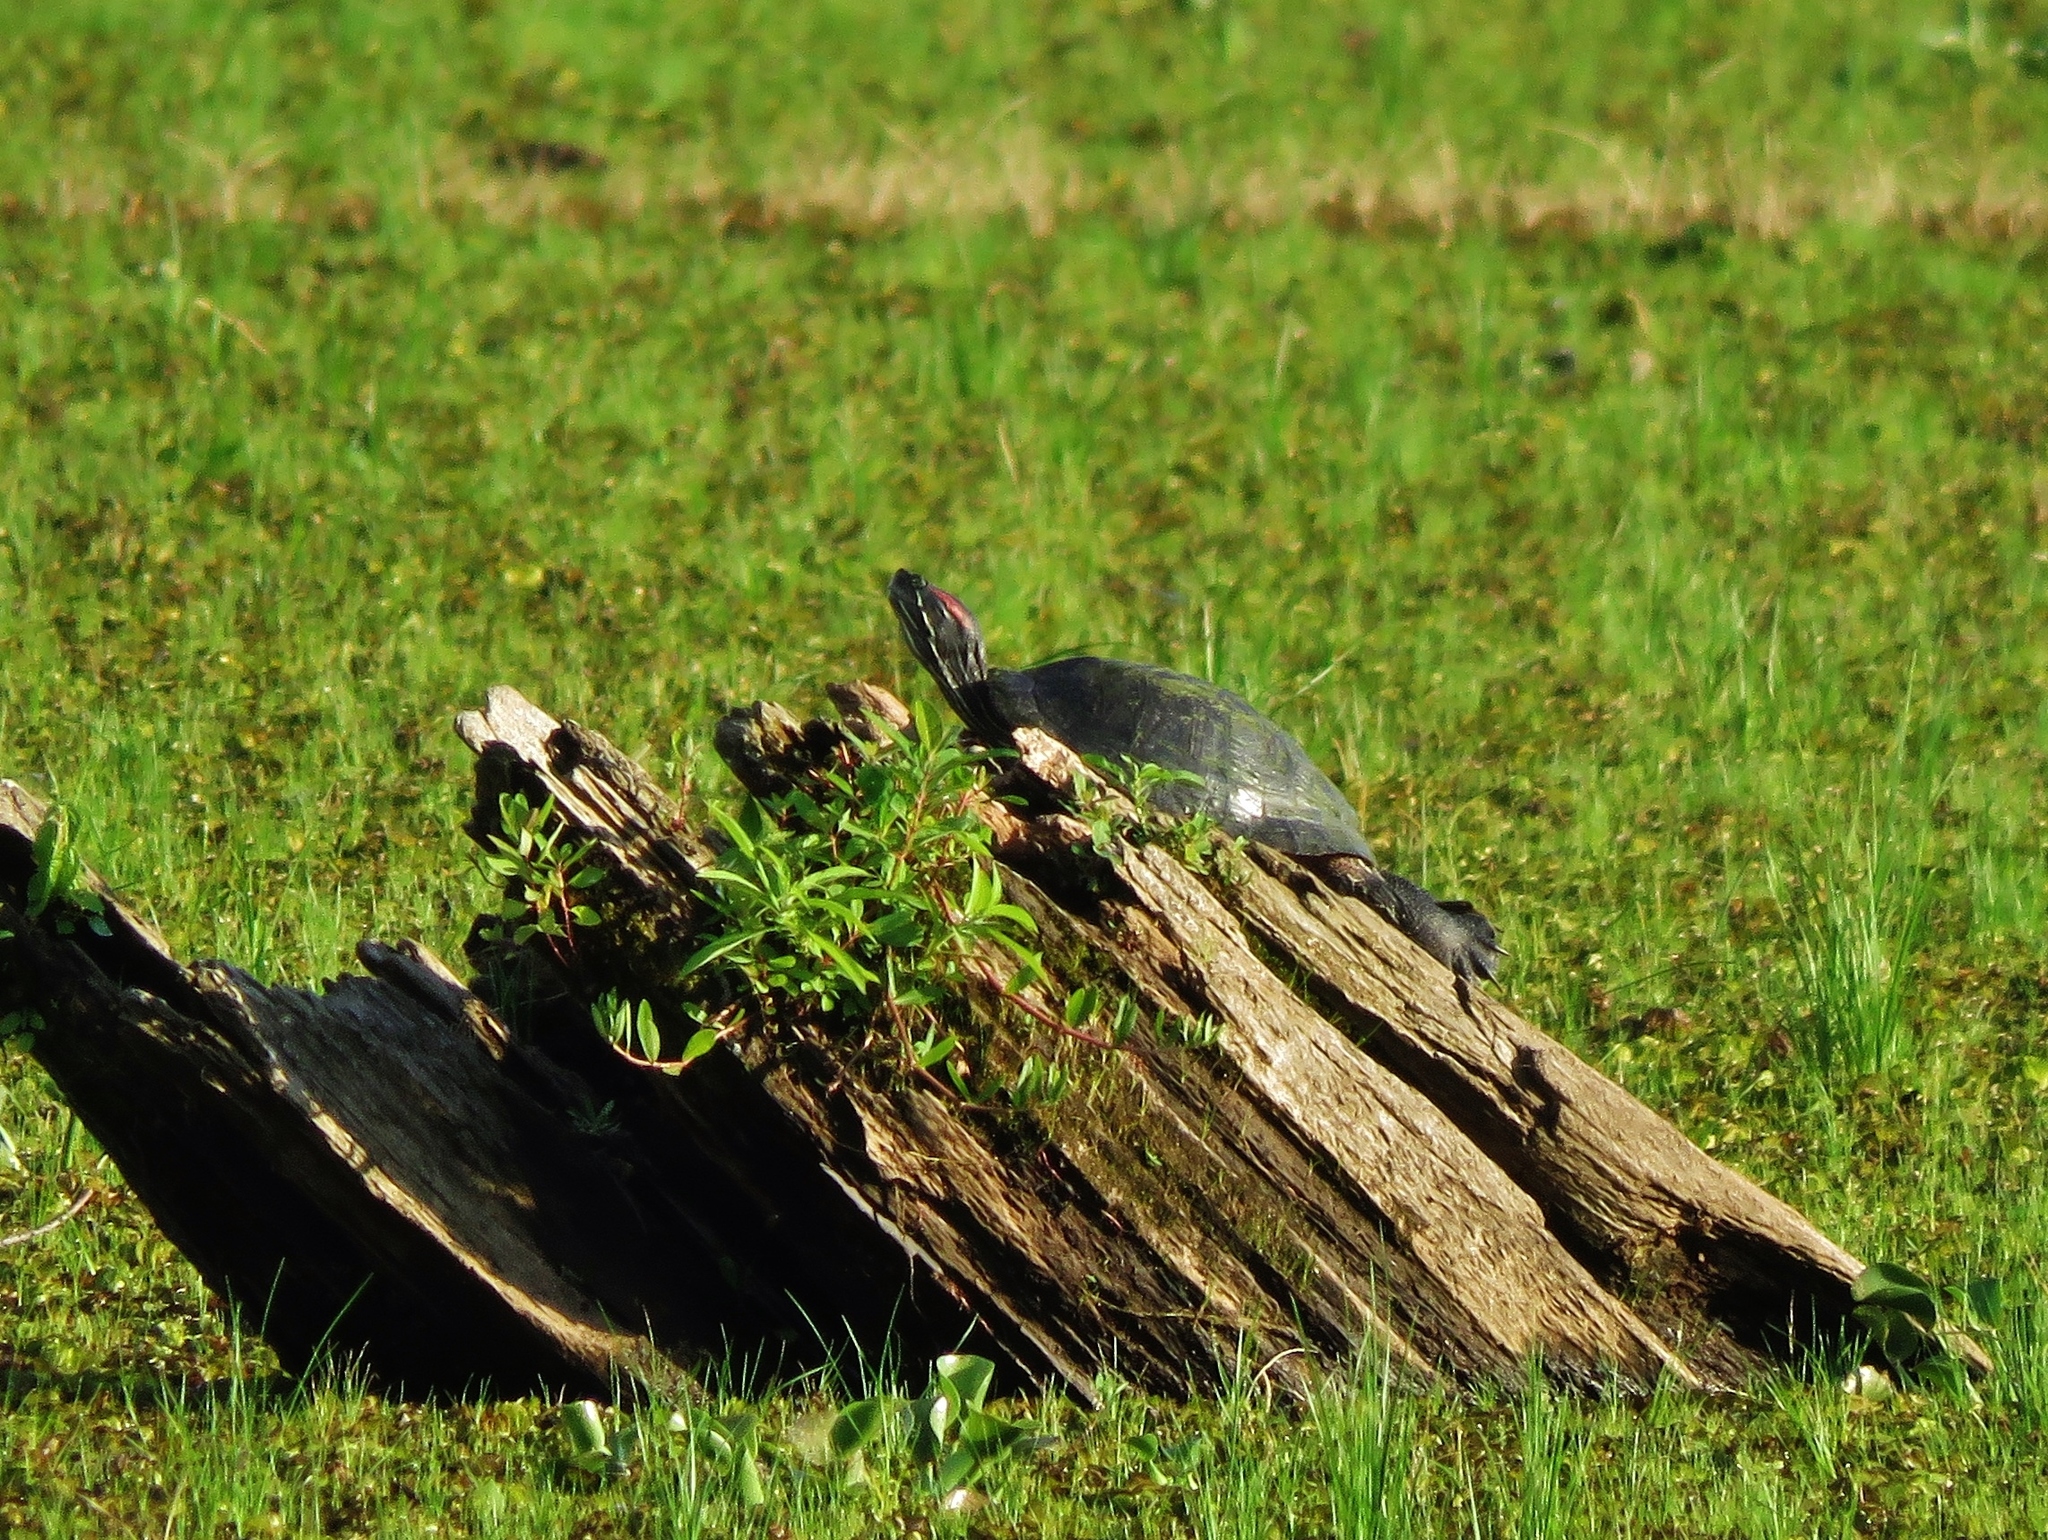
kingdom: Animalia
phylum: Chordata
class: Testudines
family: Emydidae
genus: Trachemys
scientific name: Trachemys scripta
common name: Slider
